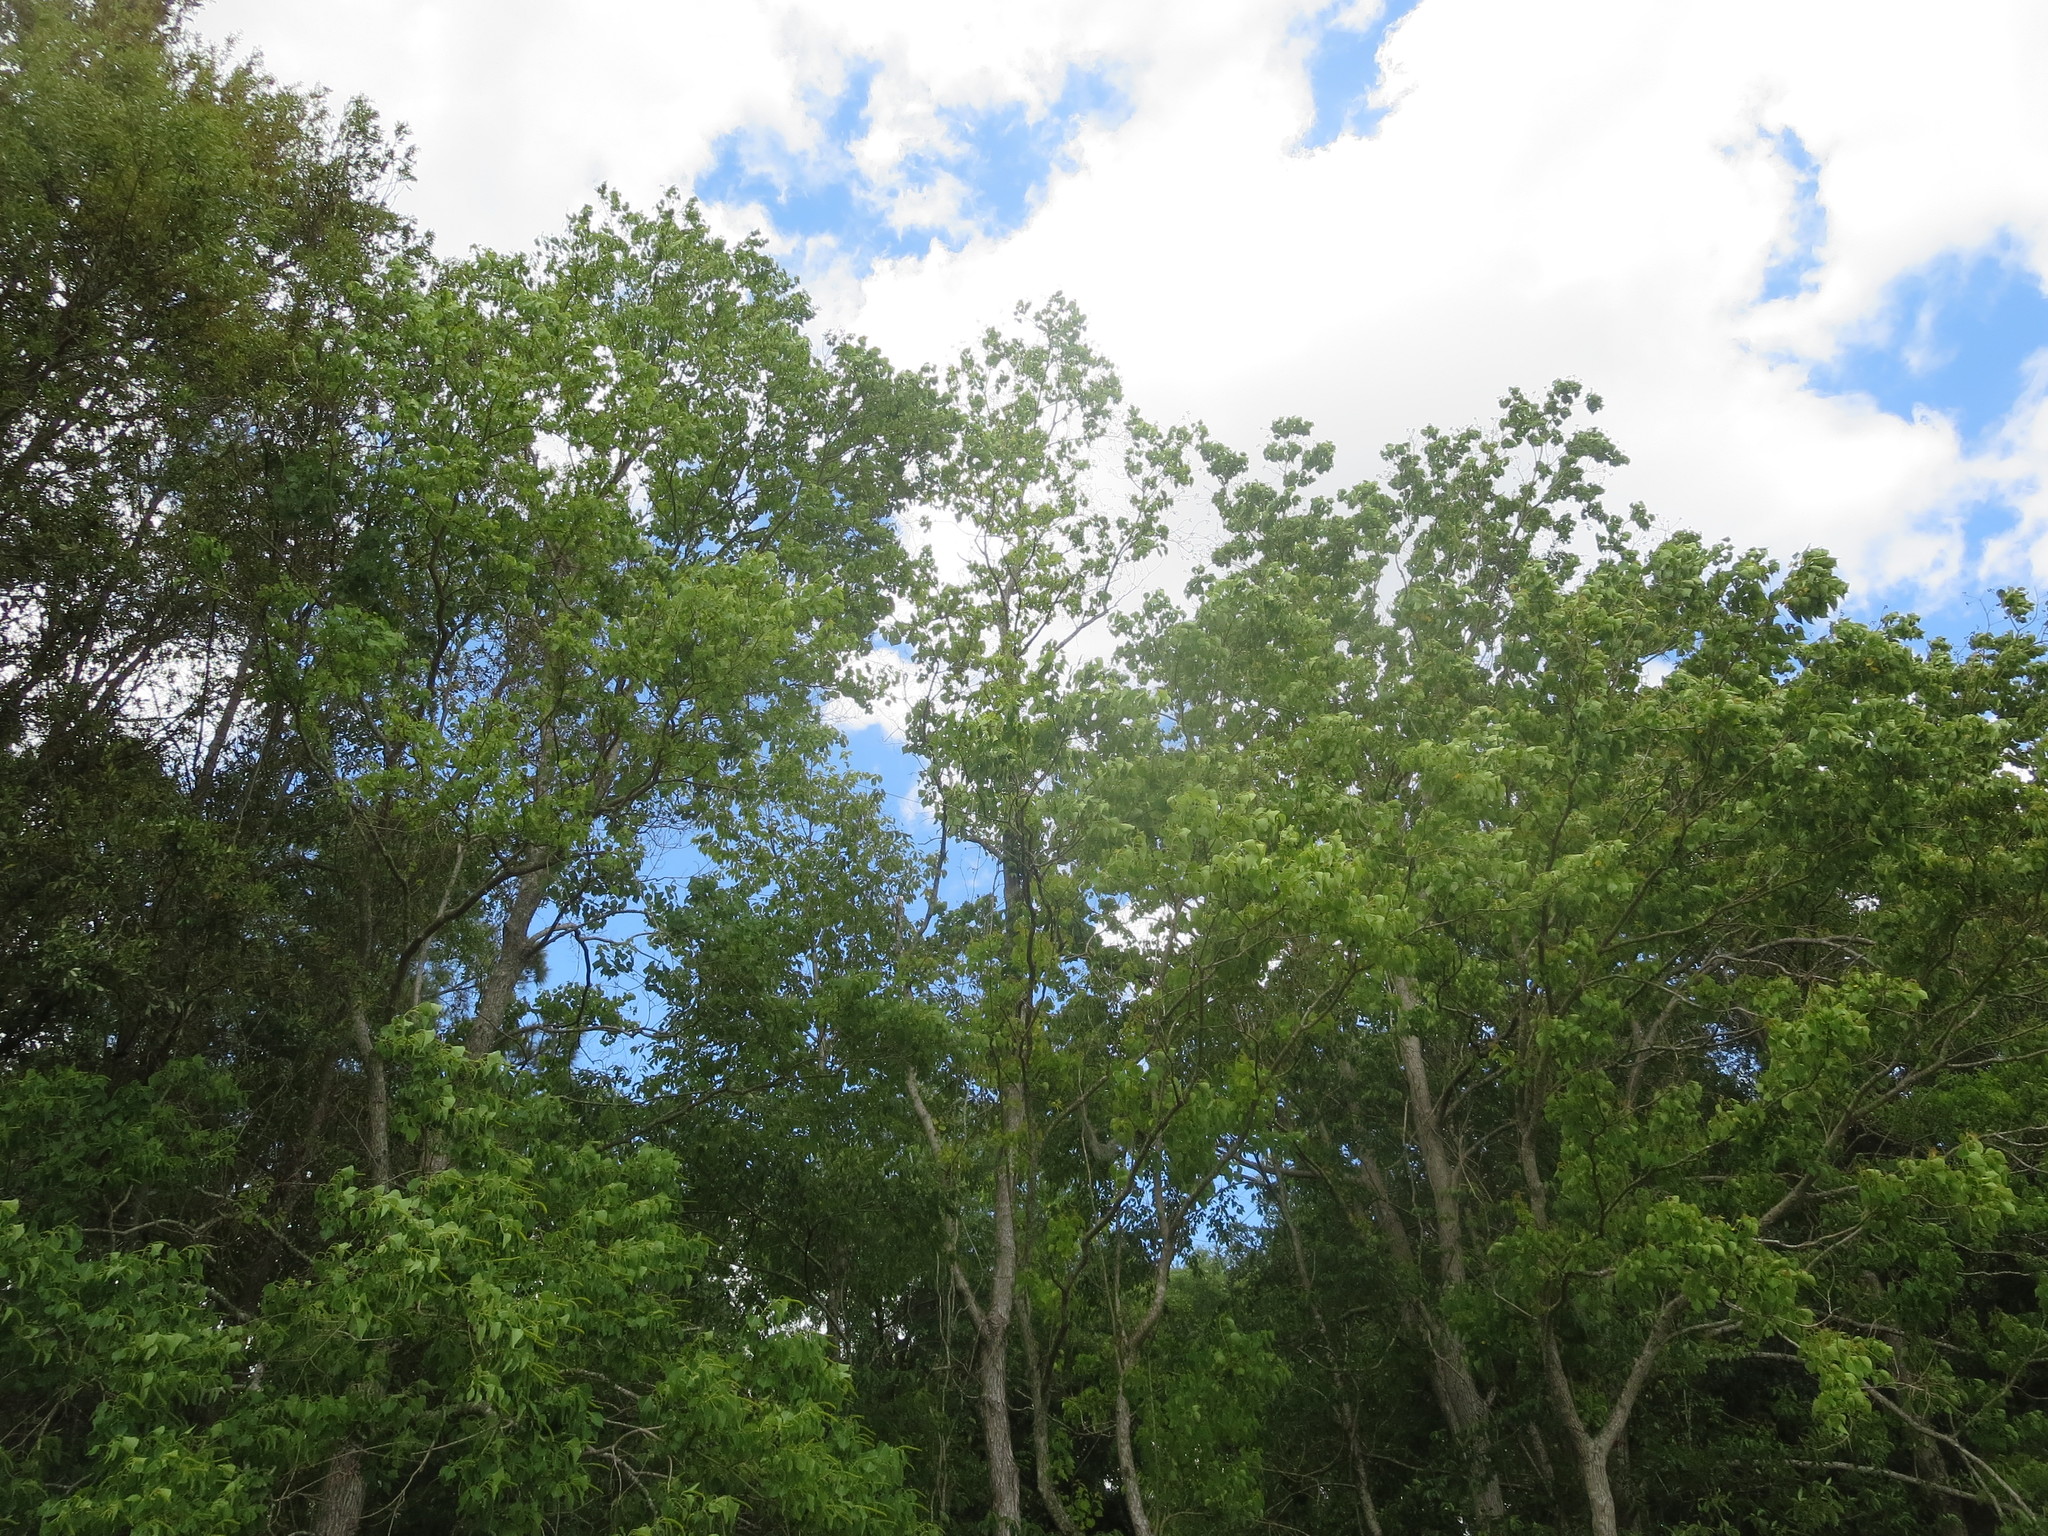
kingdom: Plantae
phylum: Tracheophyta
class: Magnoliopsida
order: Malpighiales
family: Euphorbiaceae
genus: Triadica
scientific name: Triadica sebifera
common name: Chinese tallow
